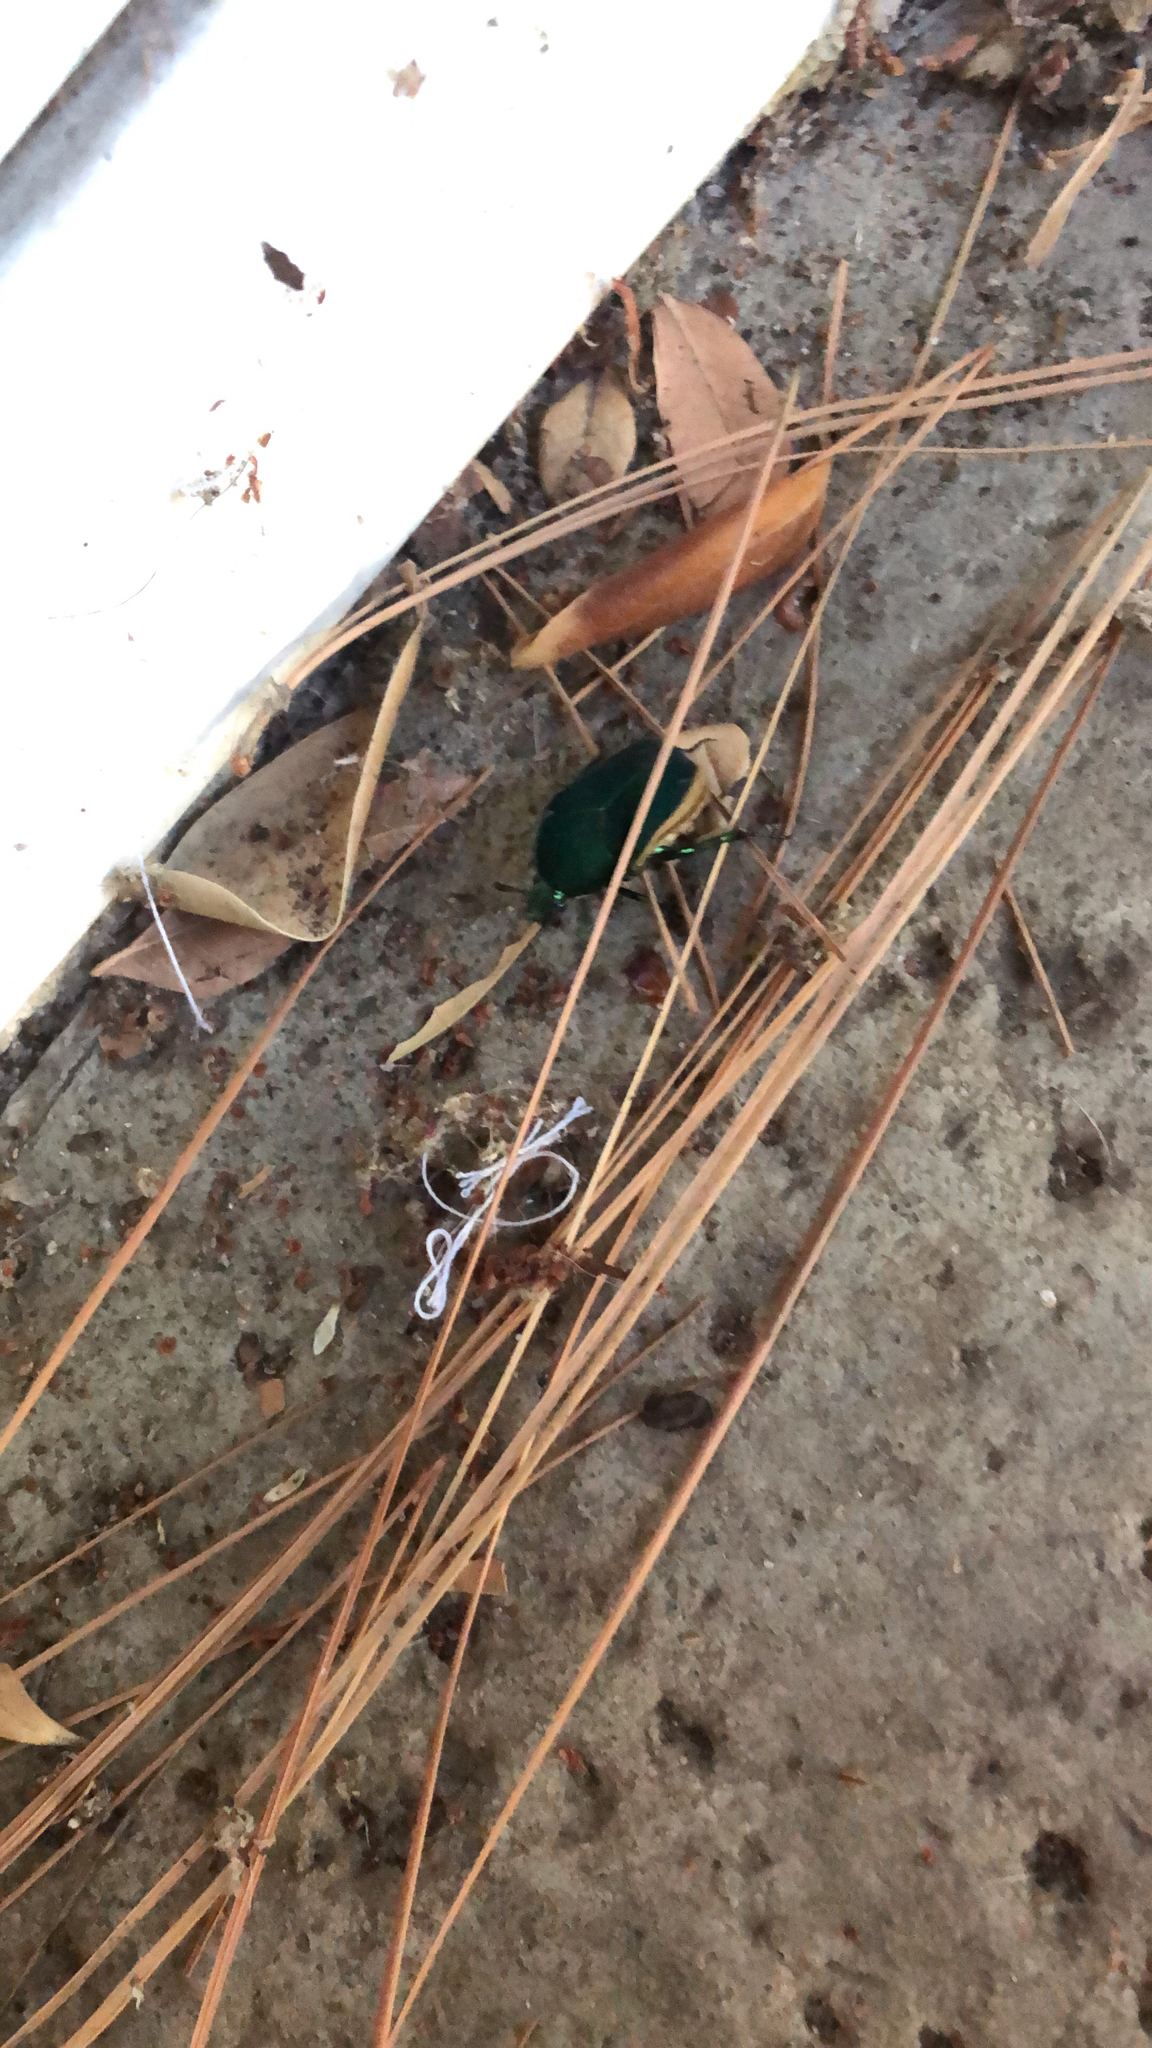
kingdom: Animalia
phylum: Arthropoda
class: Insecta
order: Coleoptera
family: Scarabaeidae
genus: Cotinis
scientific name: Cotinis mutabilis
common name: Figeater beetle
